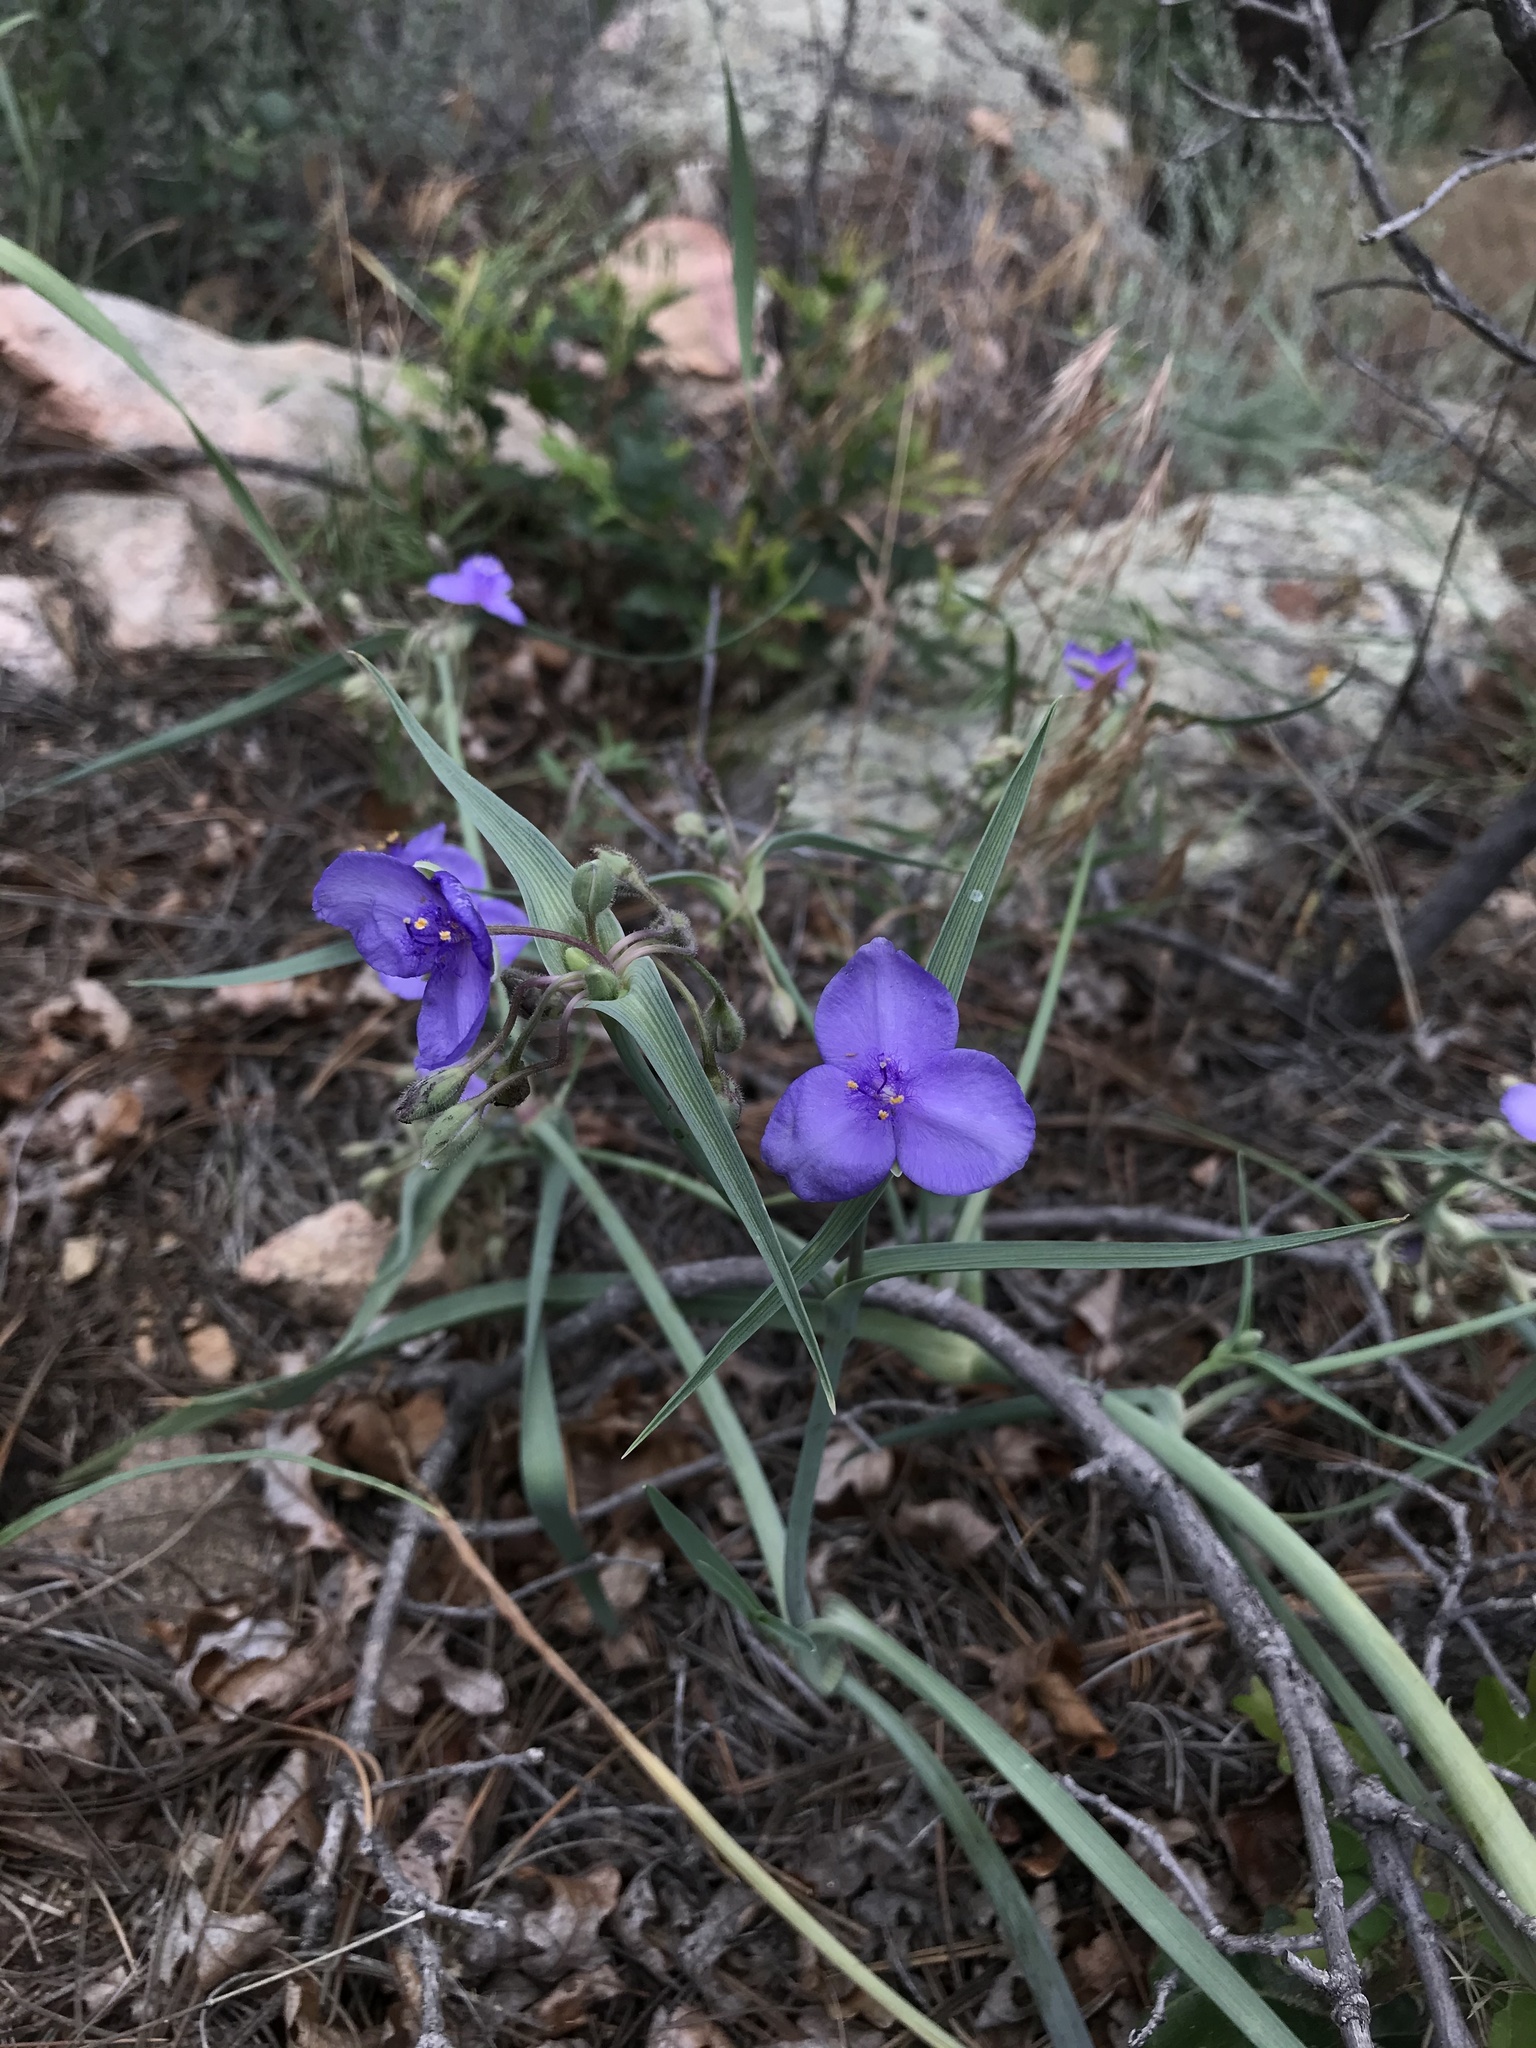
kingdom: Plantae
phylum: Tracheophyta
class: Liliopsida
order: Commelinales
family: Commelinaceae
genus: Tradescantia
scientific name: Tradescantia occidentalis
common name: Prairie spiderwort
